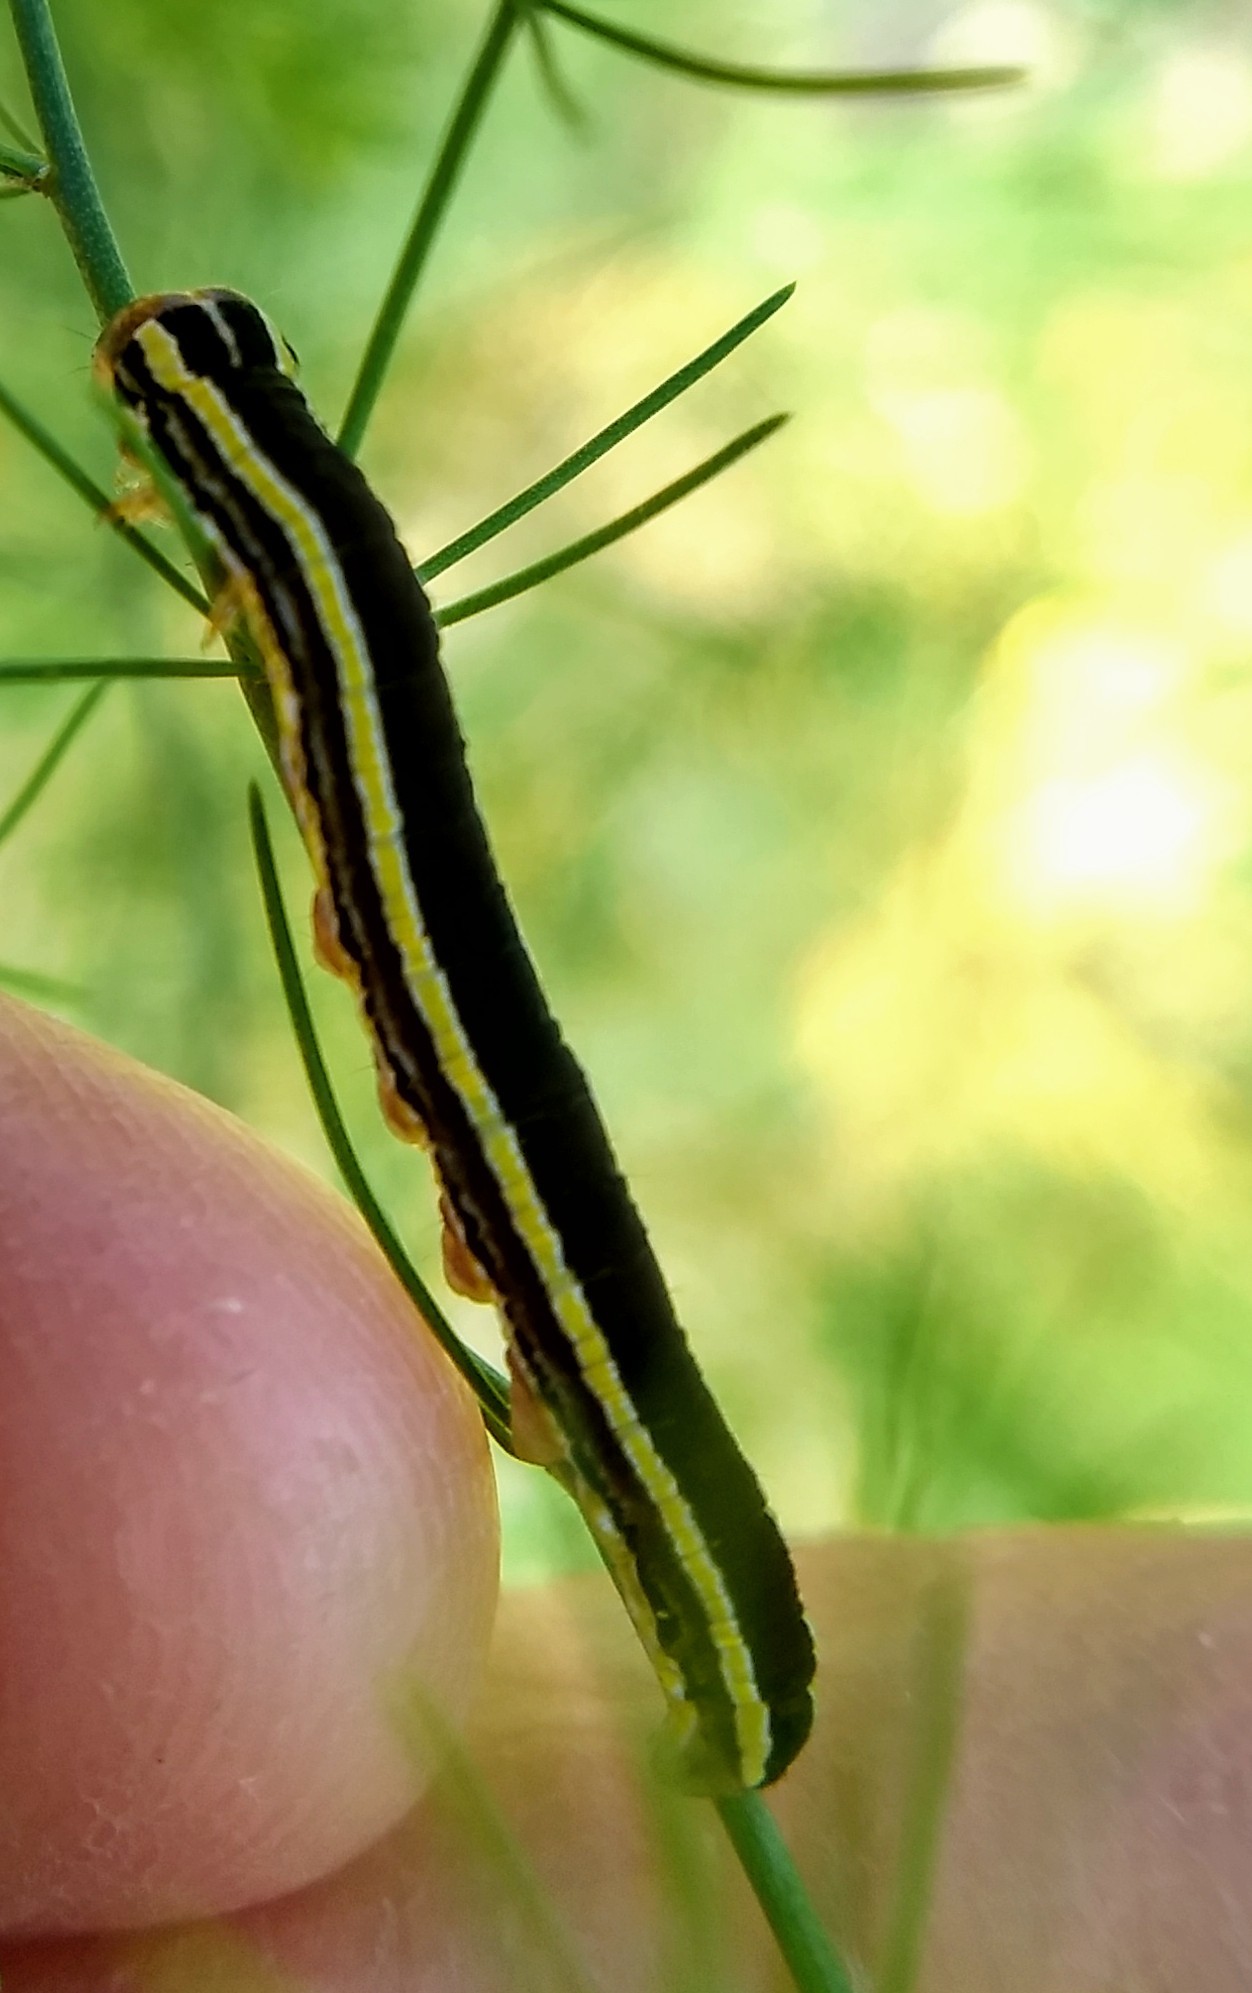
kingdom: Animalia
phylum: Arthropoda
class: Insecta
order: Lepidoptera
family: Noctuidae
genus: Trichordestra
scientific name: Trichordestra legitima
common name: Striped garden caterpillar
